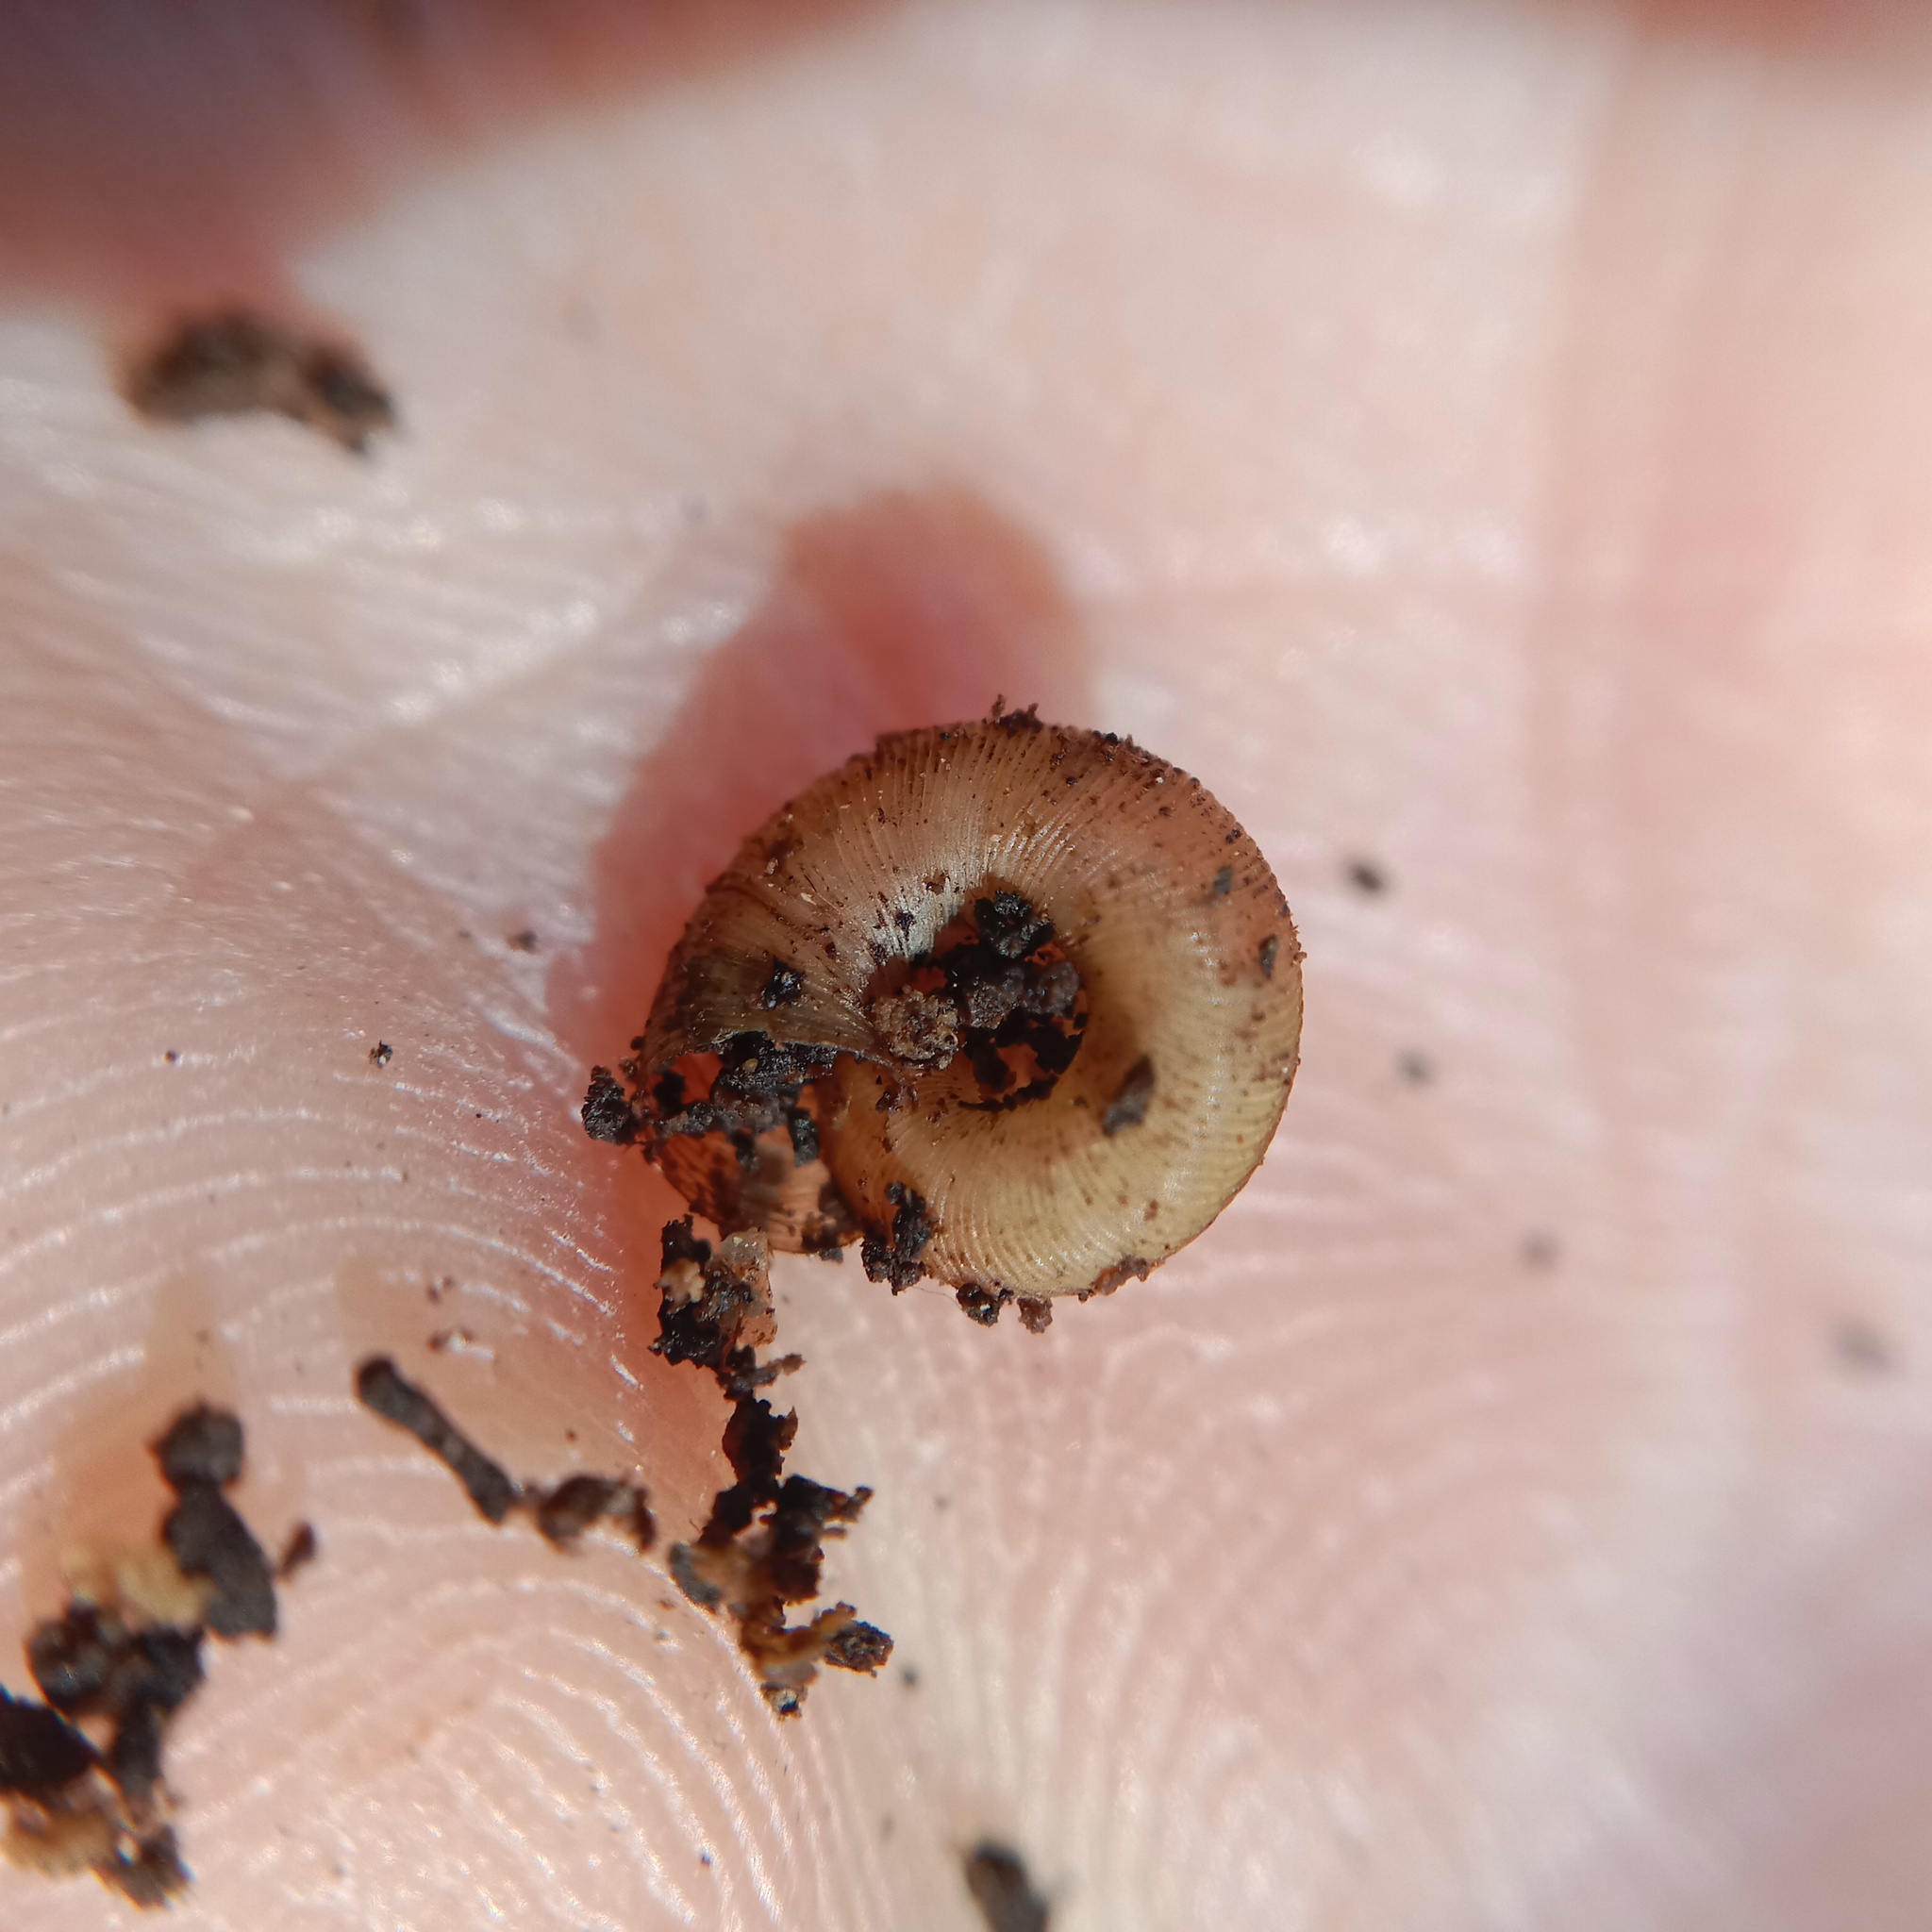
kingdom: Animalia
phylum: Mollusca
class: Gastropoda
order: Stylommatophora
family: Discidae
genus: Discus
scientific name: Discus ruderatus
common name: Brown disc snail
